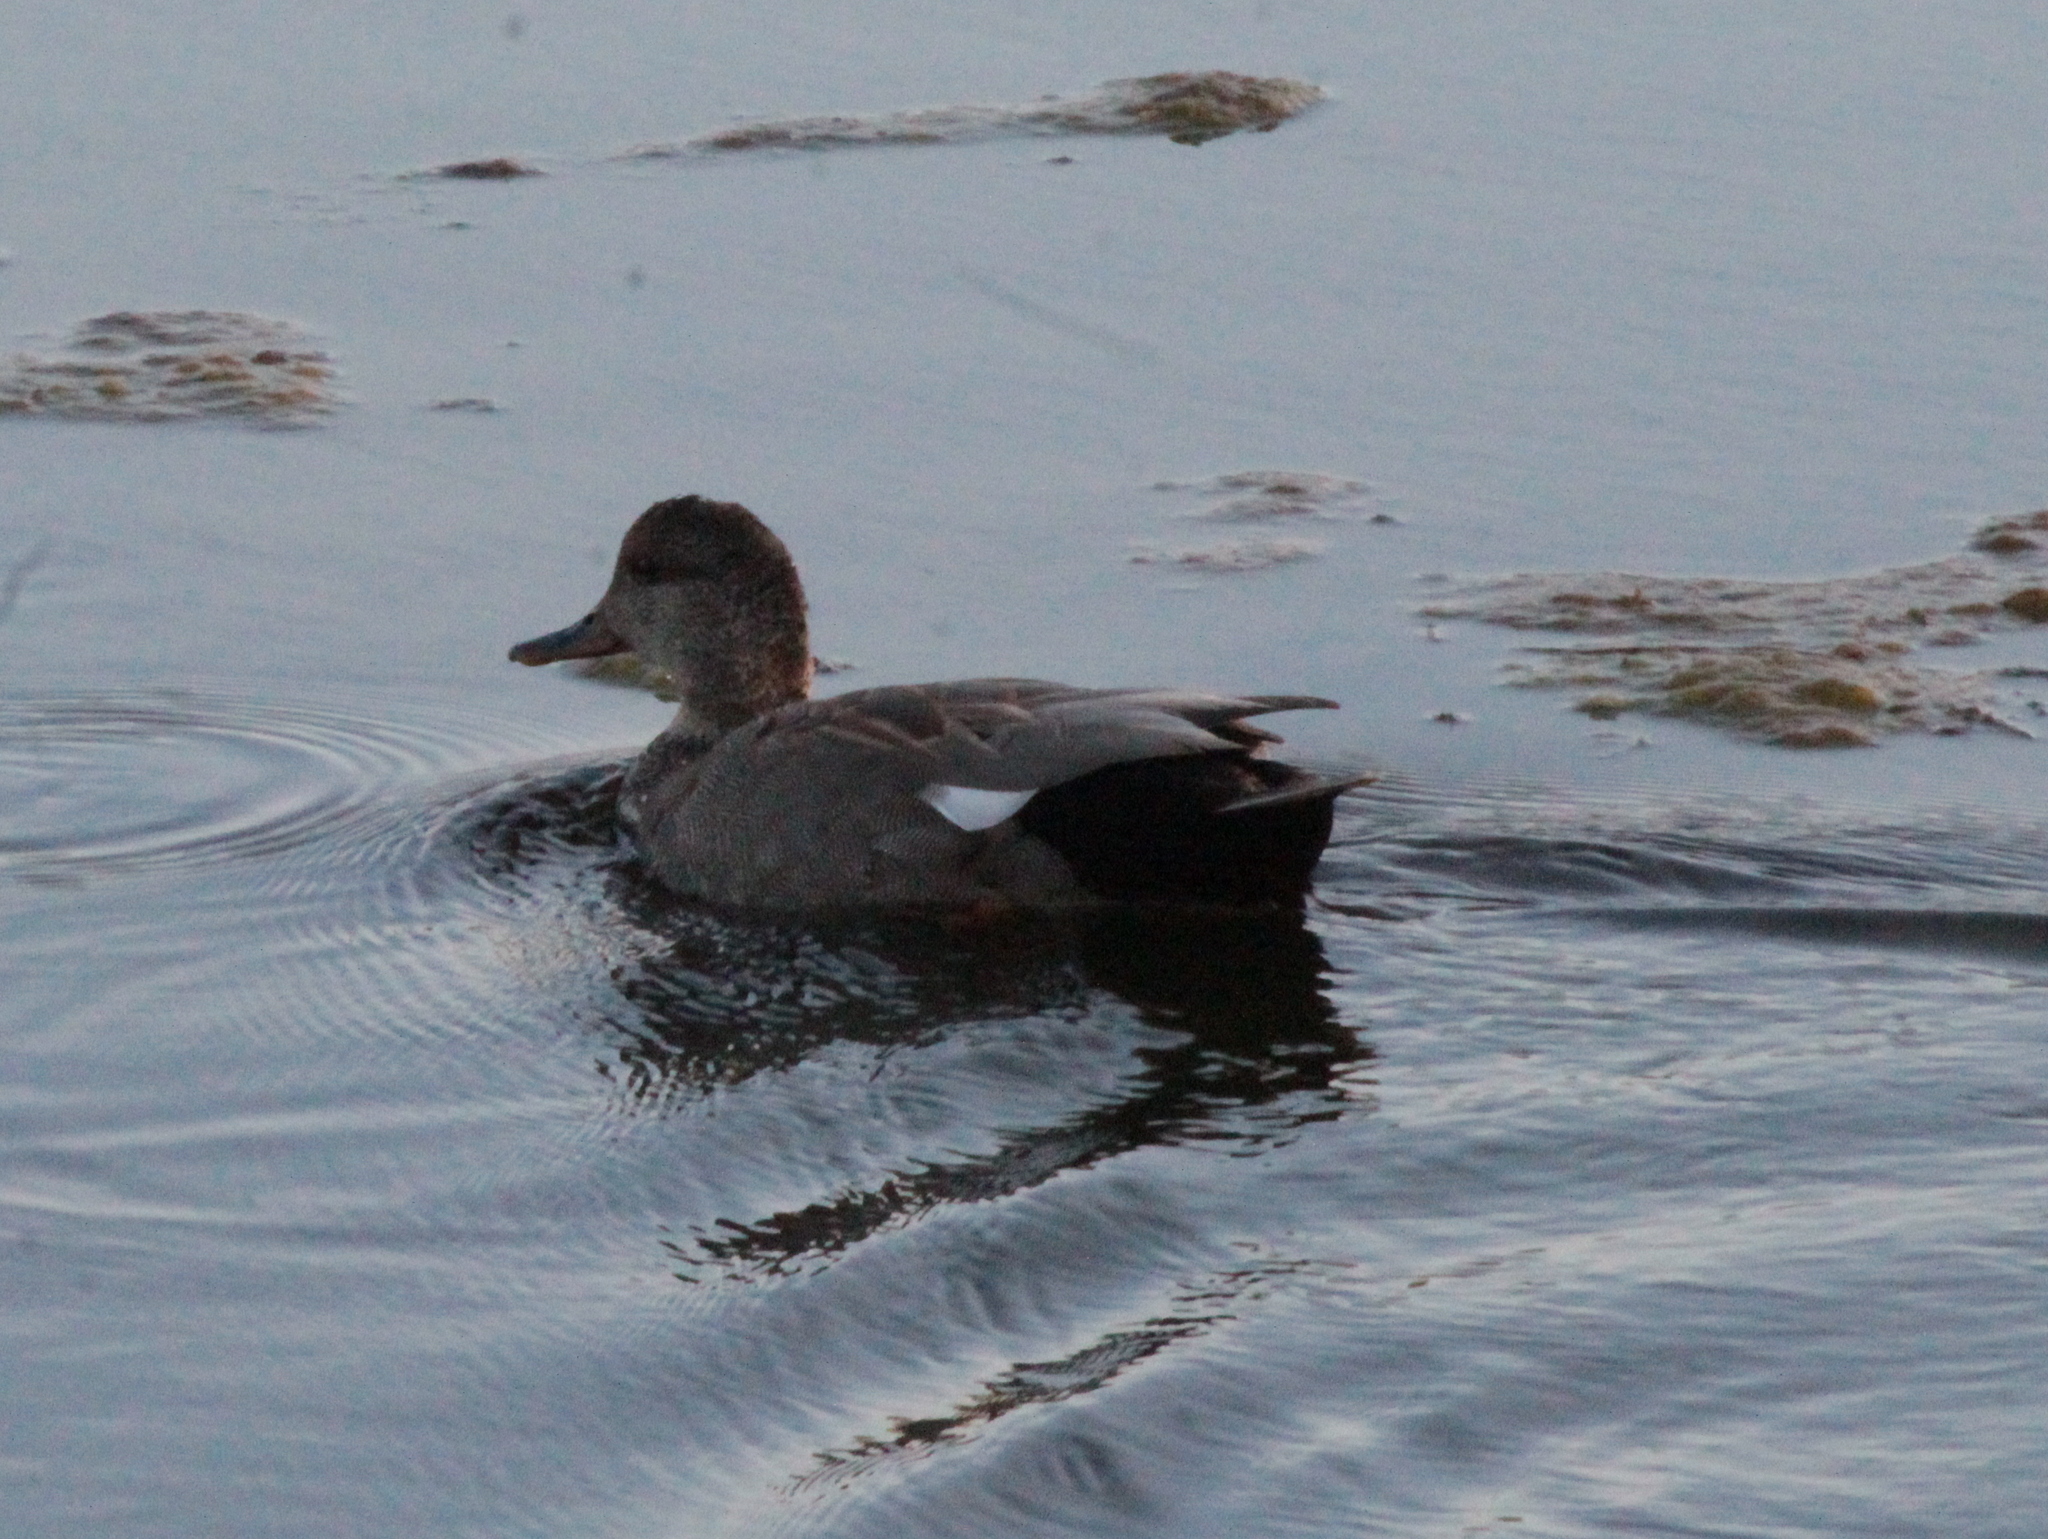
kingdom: Animalia
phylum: Chordata
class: Aves
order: Anseriformes
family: Anatidae
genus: Mareca
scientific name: Mareca strepera
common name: Gadwall
